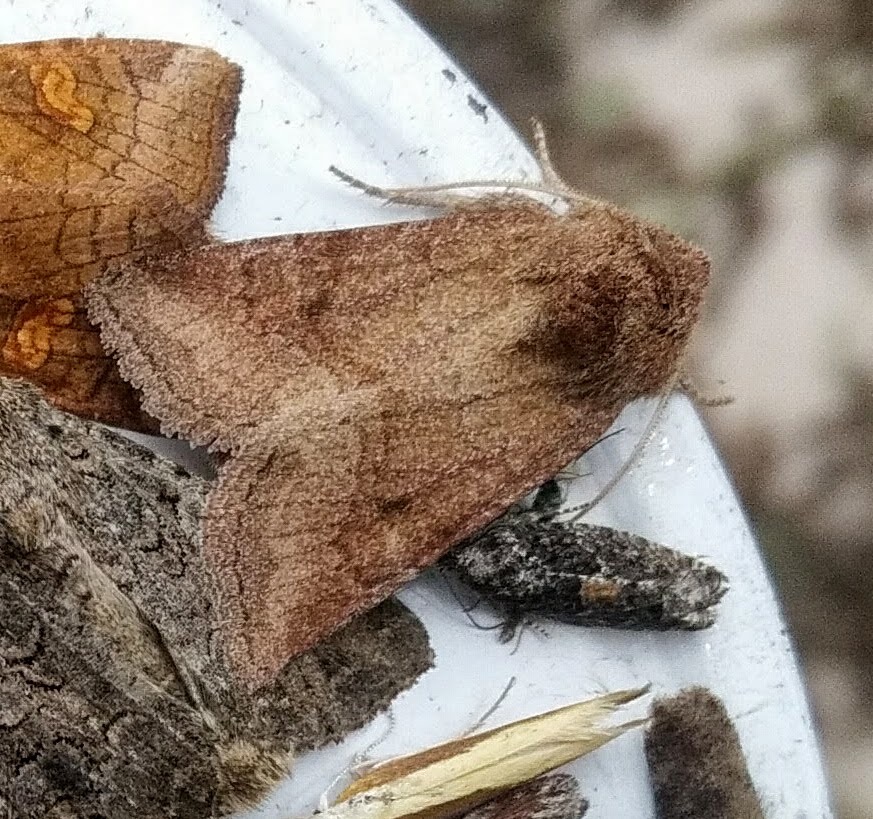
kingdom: Animalia
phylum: Arthropoda
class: Insecta
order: Lepidoptera
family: Noctuidae
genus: Lacinipolia
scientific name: Lacinipolia lorea
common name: Bridled arches moth
